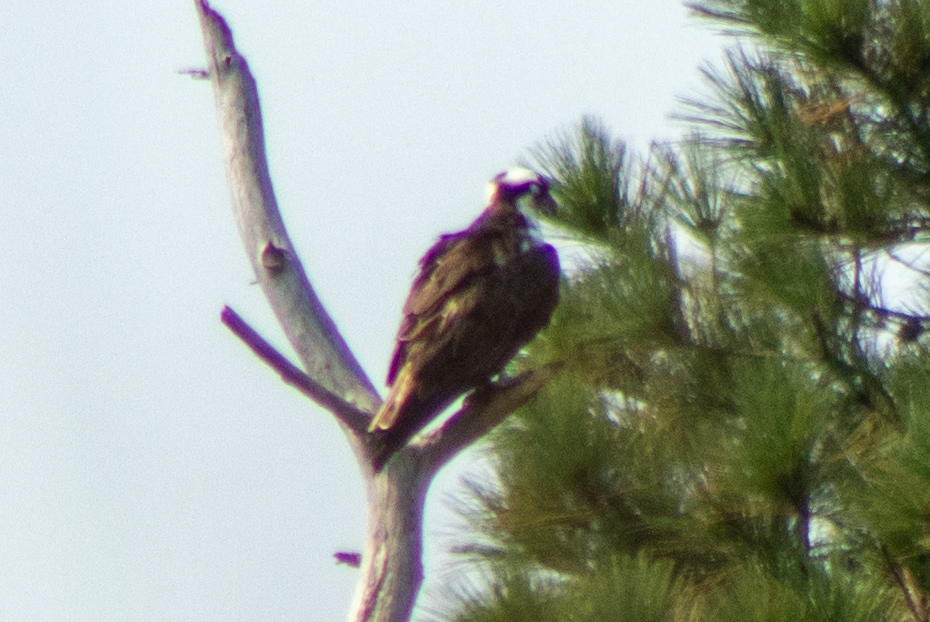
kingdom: Animalia
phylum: Chordata
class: Aves
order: Accipitriformes
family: Pandionidae
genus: Pandion
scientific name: Pandion haliaetus
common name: Osprey
